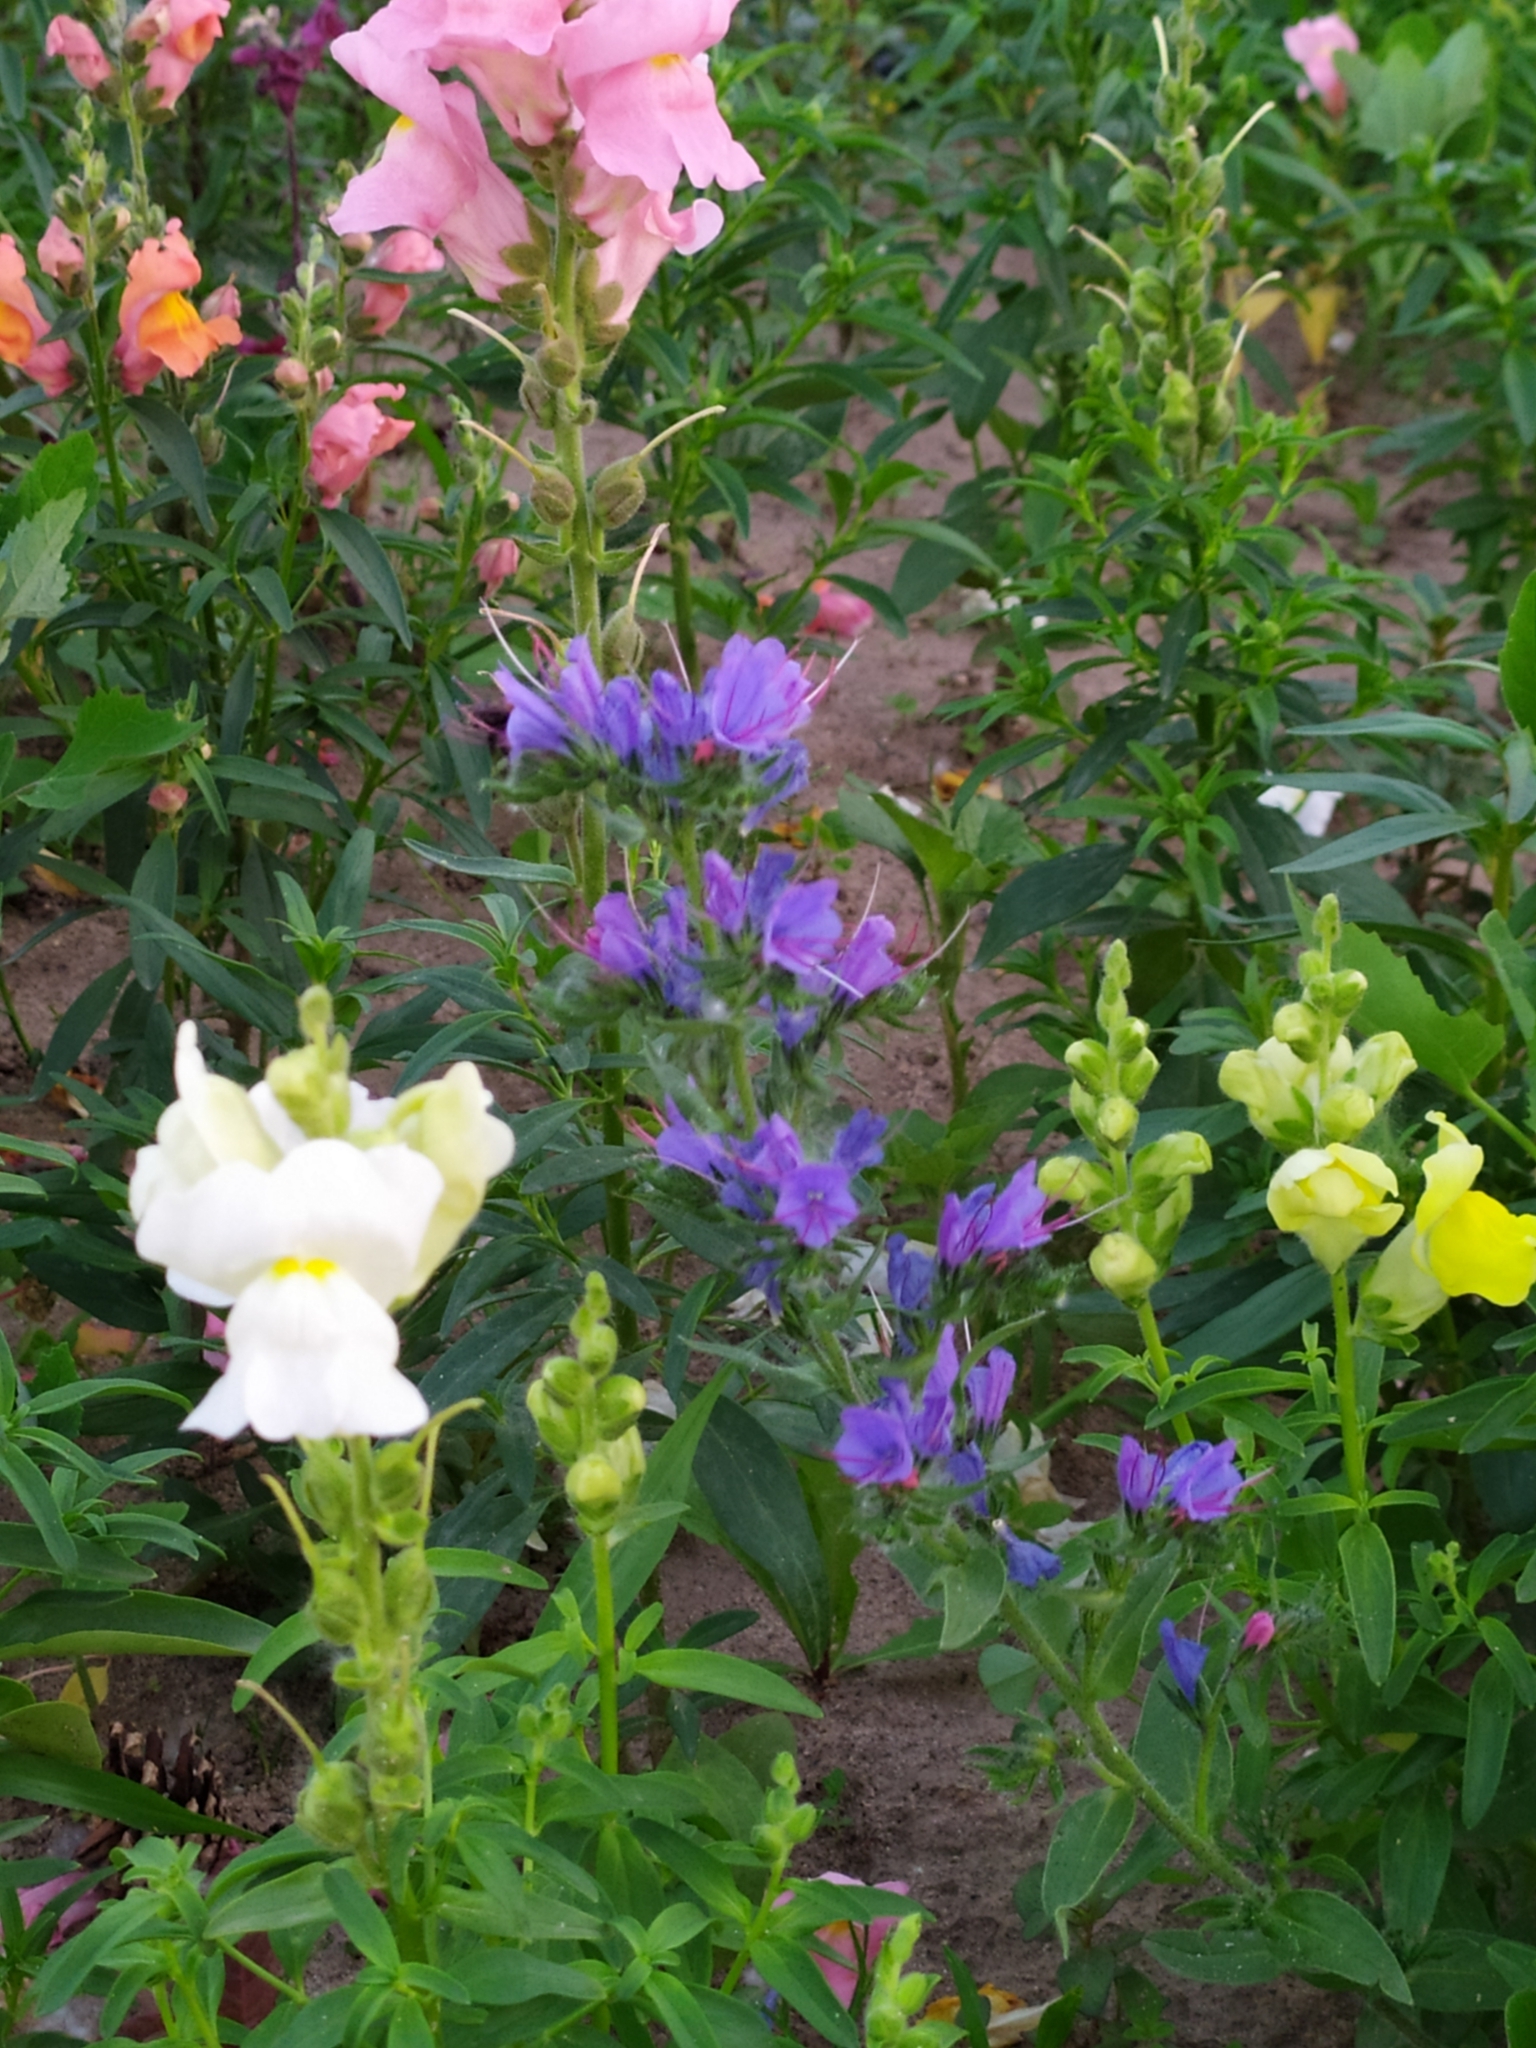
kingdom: Plantae
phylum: Tracheophyta
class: Magnoliopsida
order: Boraginales
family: Boraginaceae
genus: Echium
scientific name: Echium vulgare
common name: Common viper's bugloss
